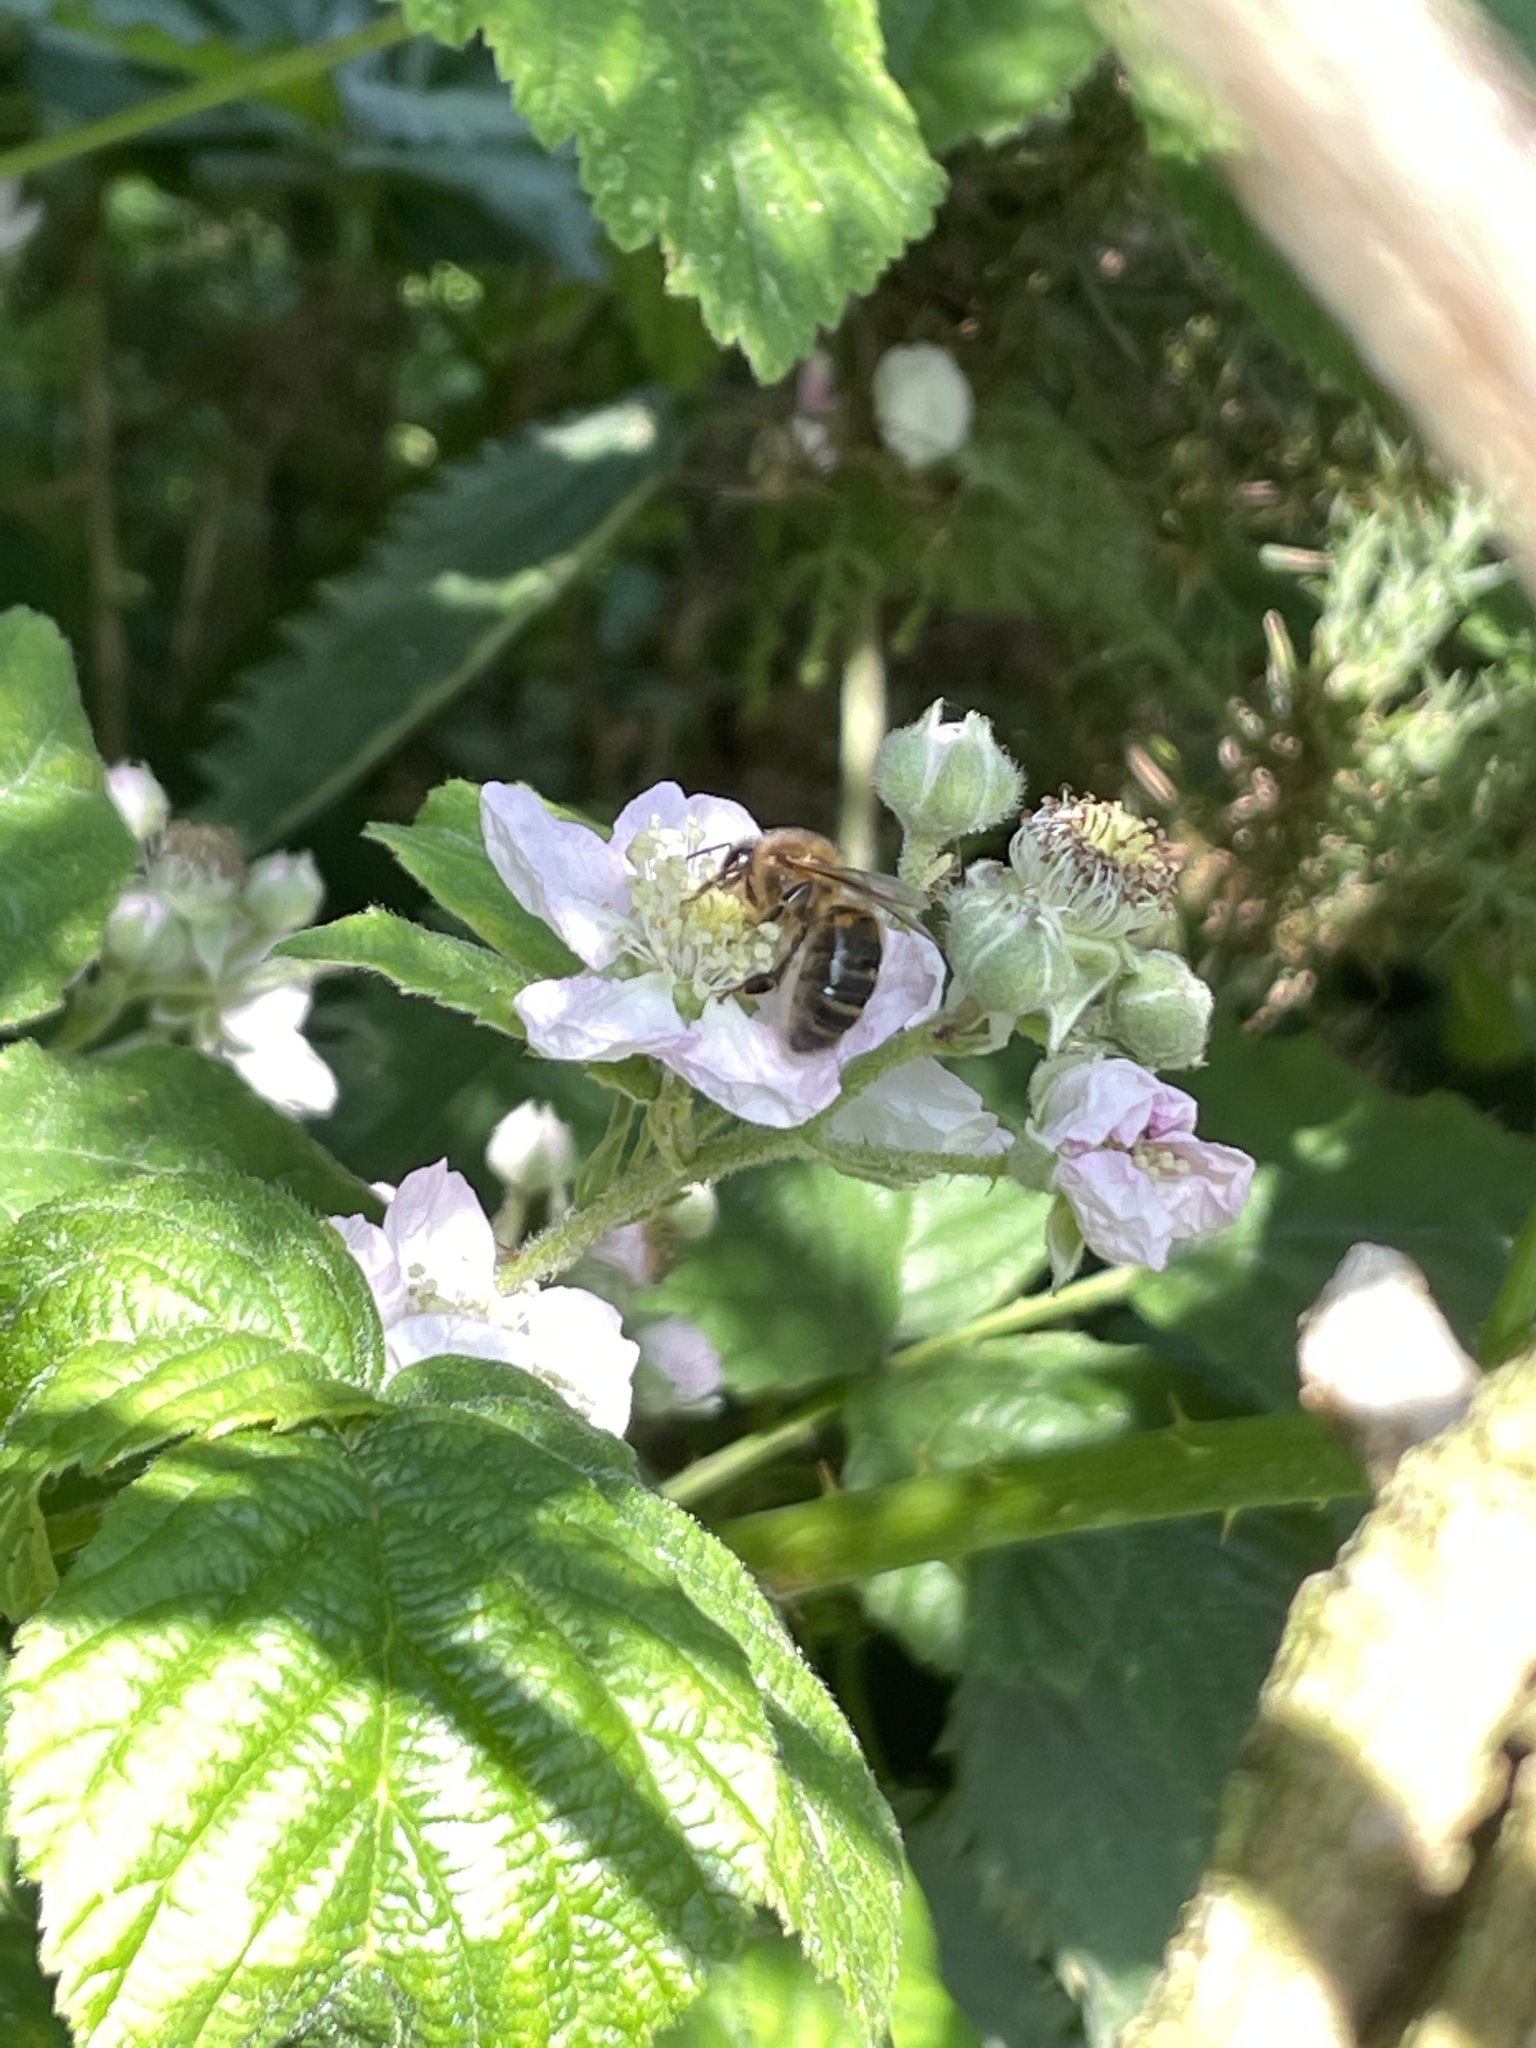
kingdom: Animalia
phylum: Arthropoda
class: Insecta
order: Hymenoptera
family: Apidae
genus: Apis
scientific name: Apis mellifera
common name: Honey bee
